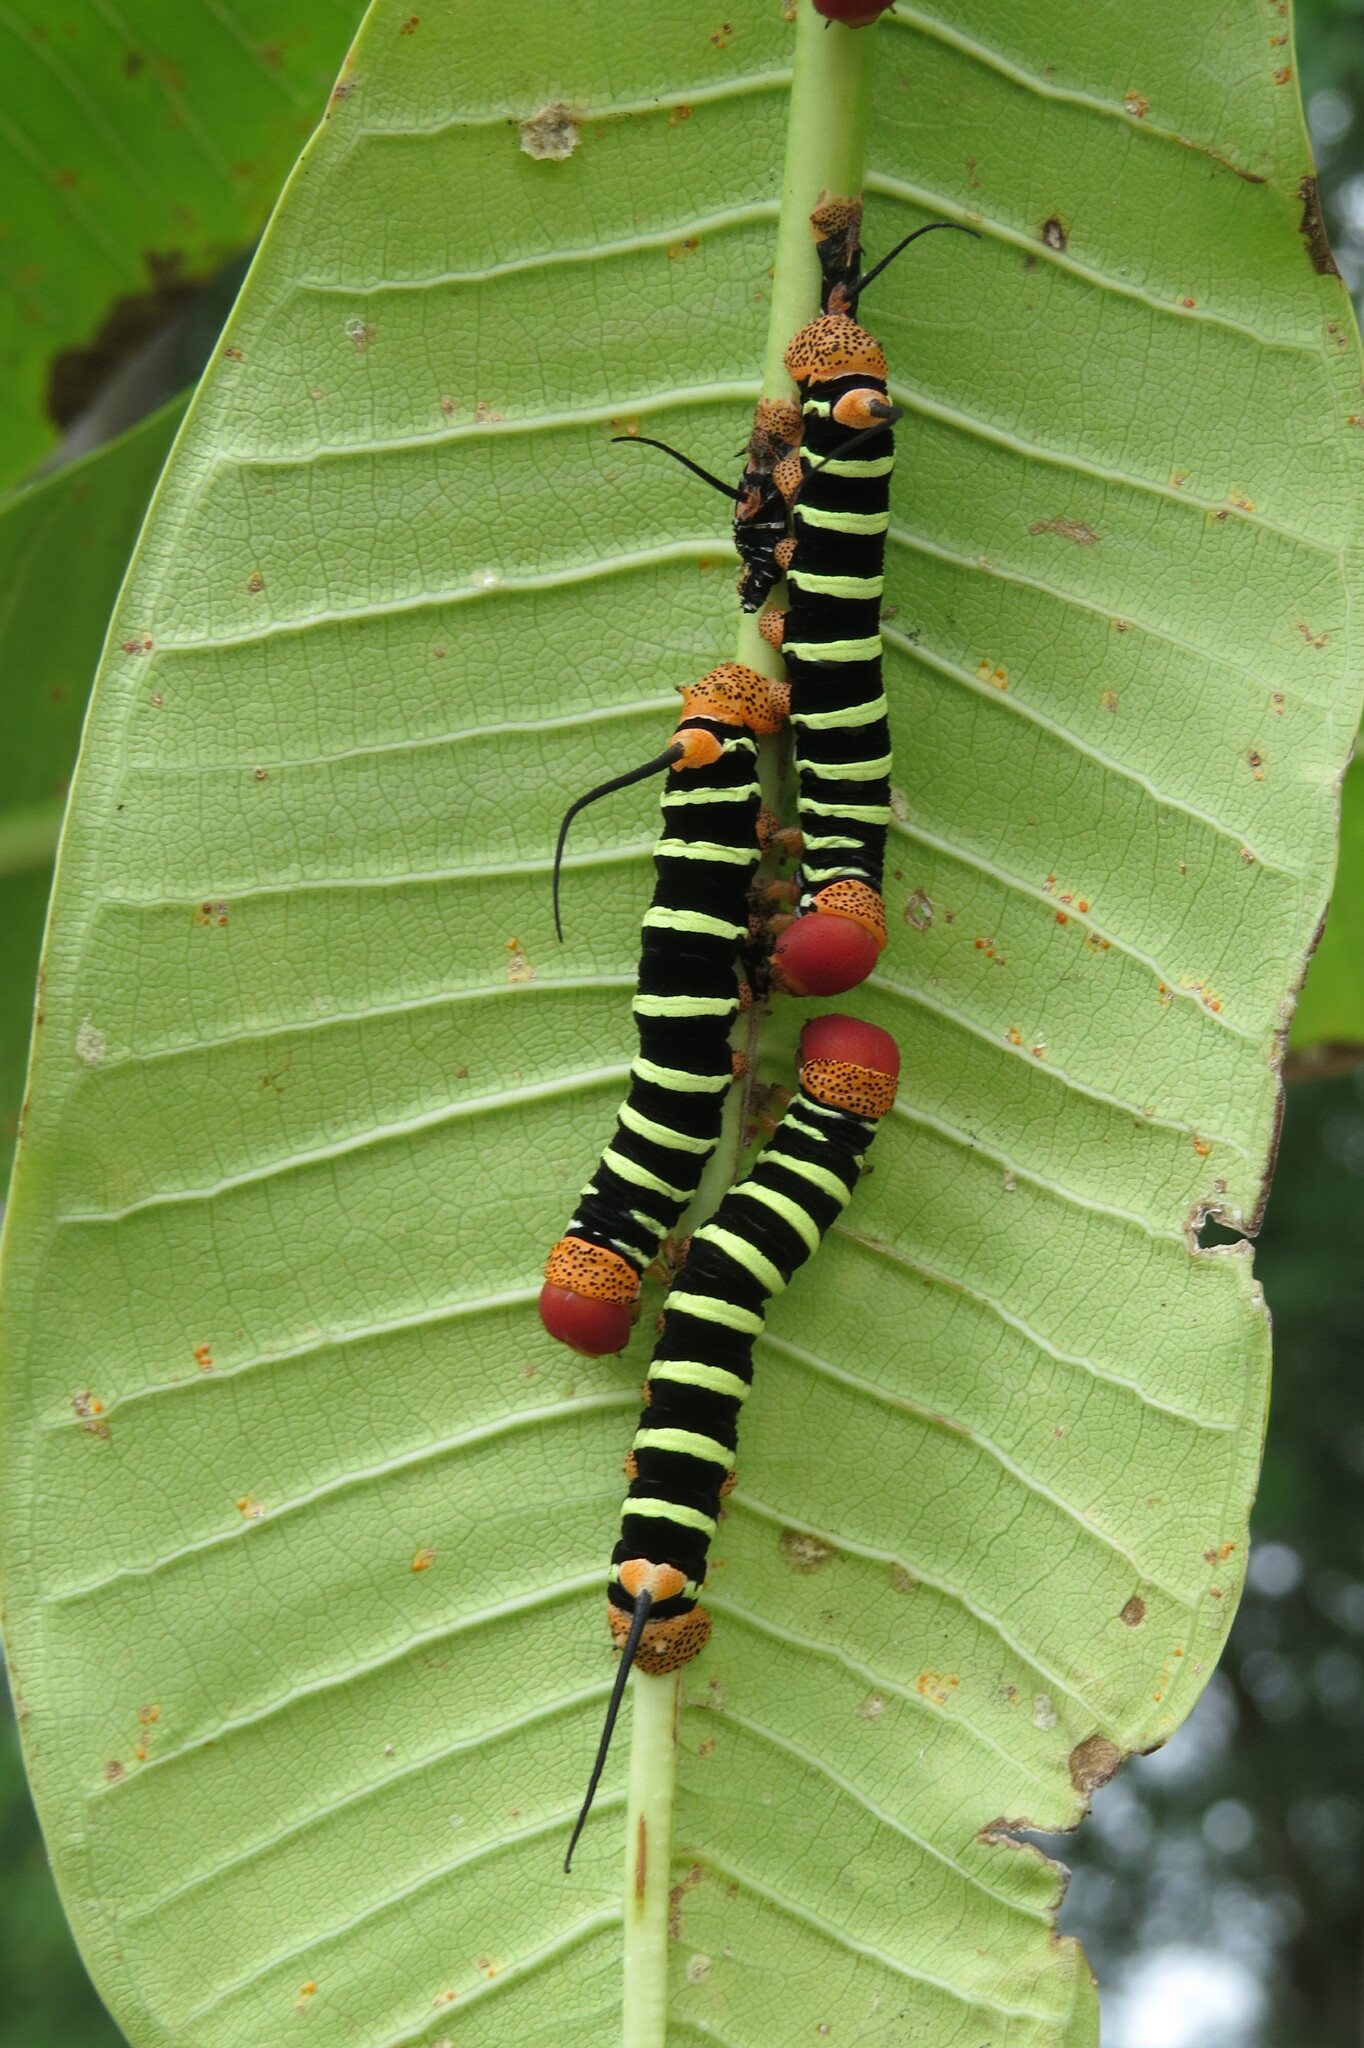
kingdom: Animalia
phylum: Arthropoda
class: Insecta
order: Lepidoptera
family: Sphingidae
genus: Pseudosphinx
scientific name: Pseudosphinx tetrio
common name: Tetrio sphinx
